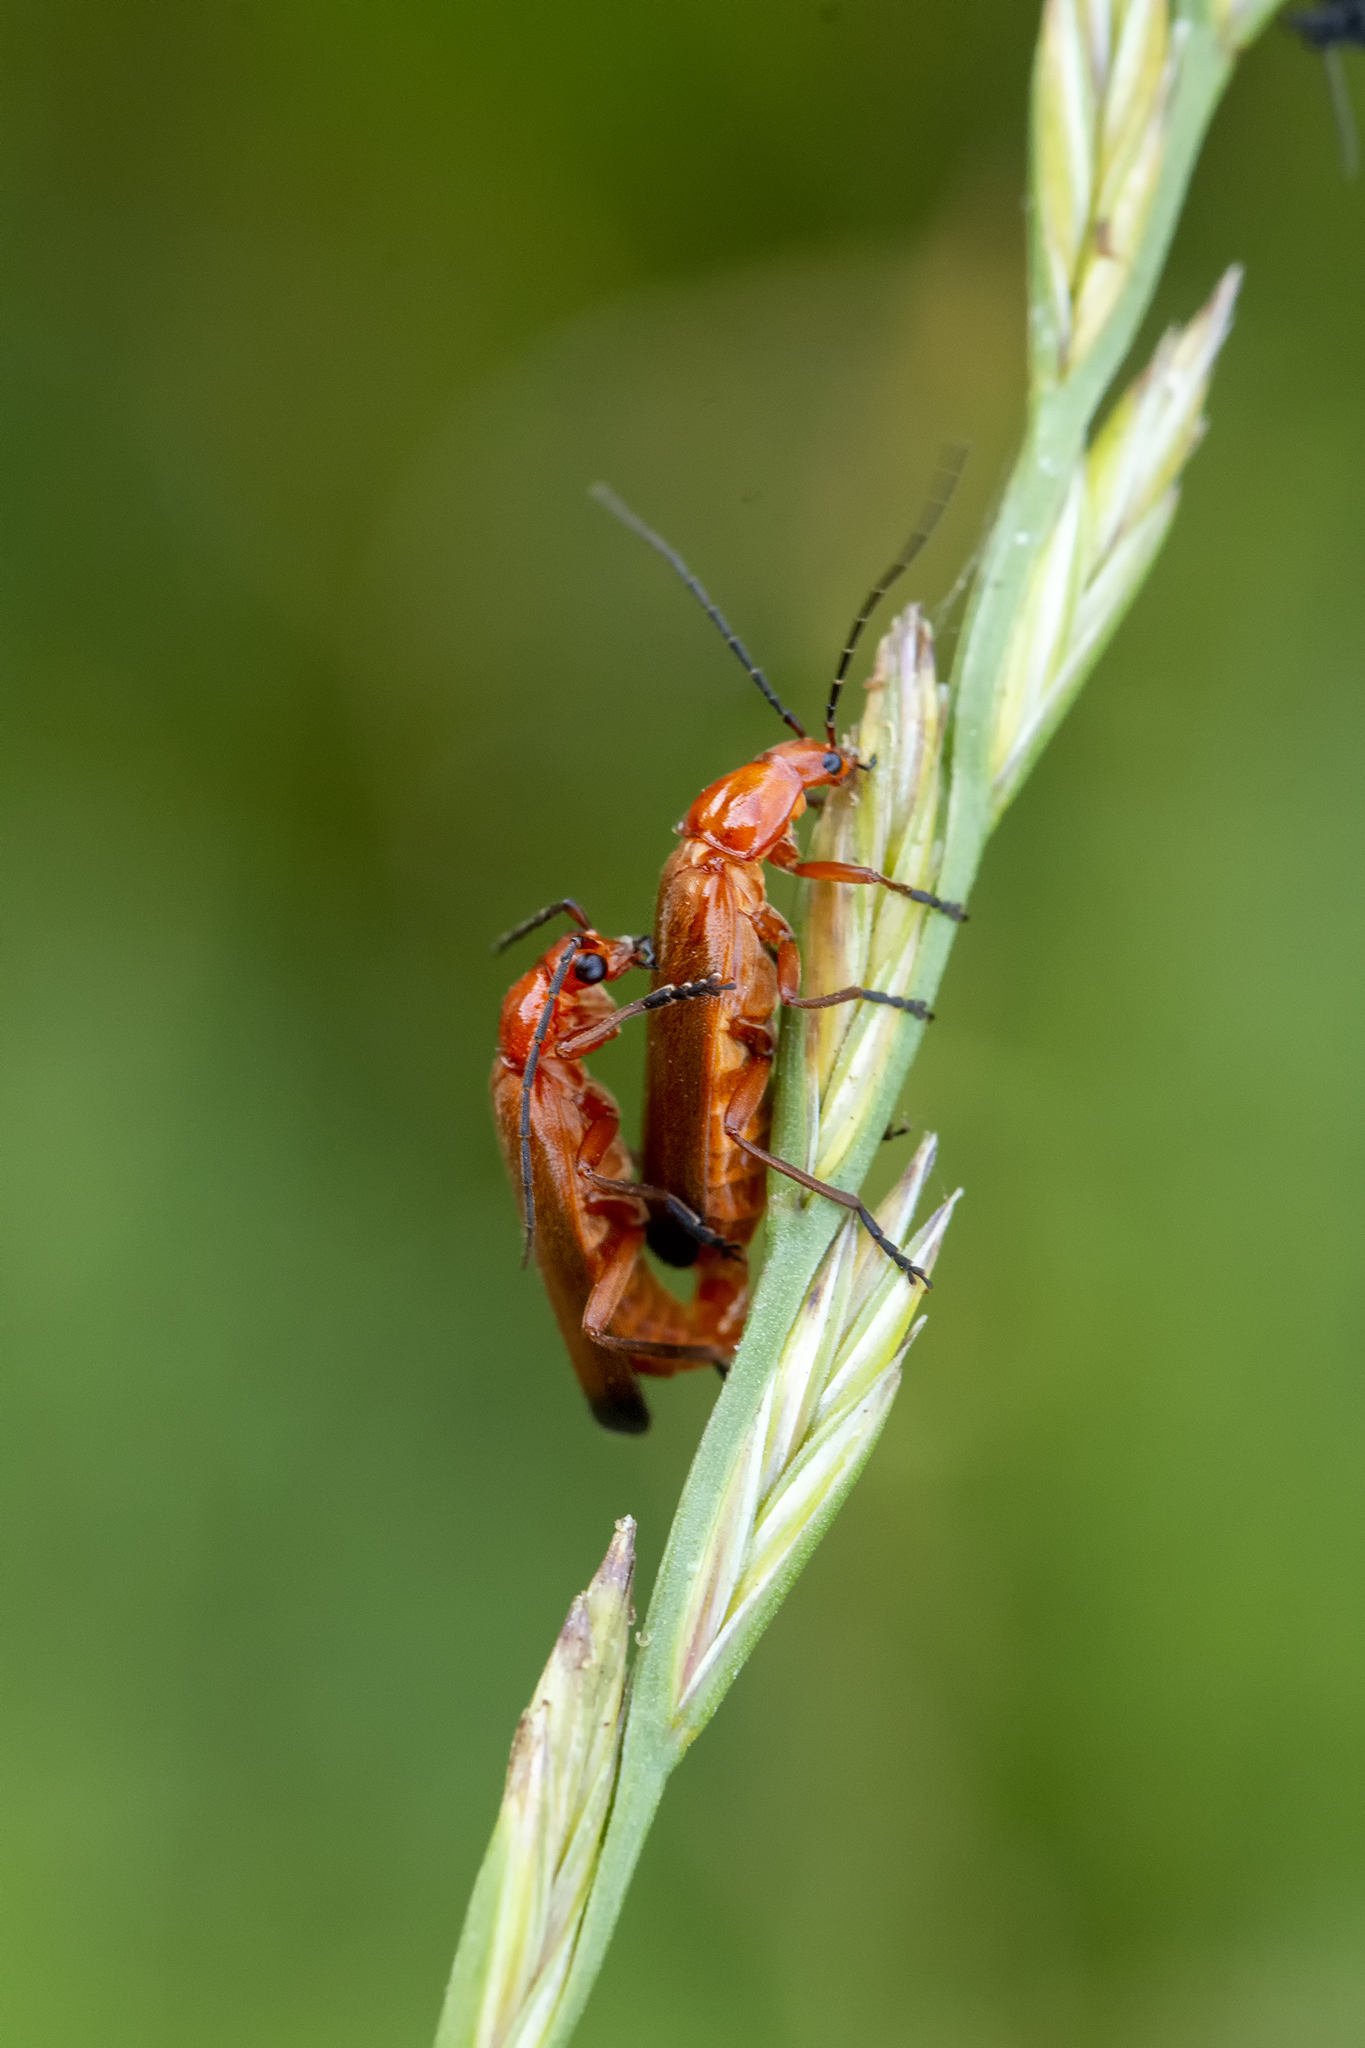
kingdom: Animalia
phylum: Arthropoda
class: Insecta
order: Coleoptera
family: Cantharidae
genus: Rhagonycha
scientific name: Rhagonycha fulva
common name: Common red soldier beetle
